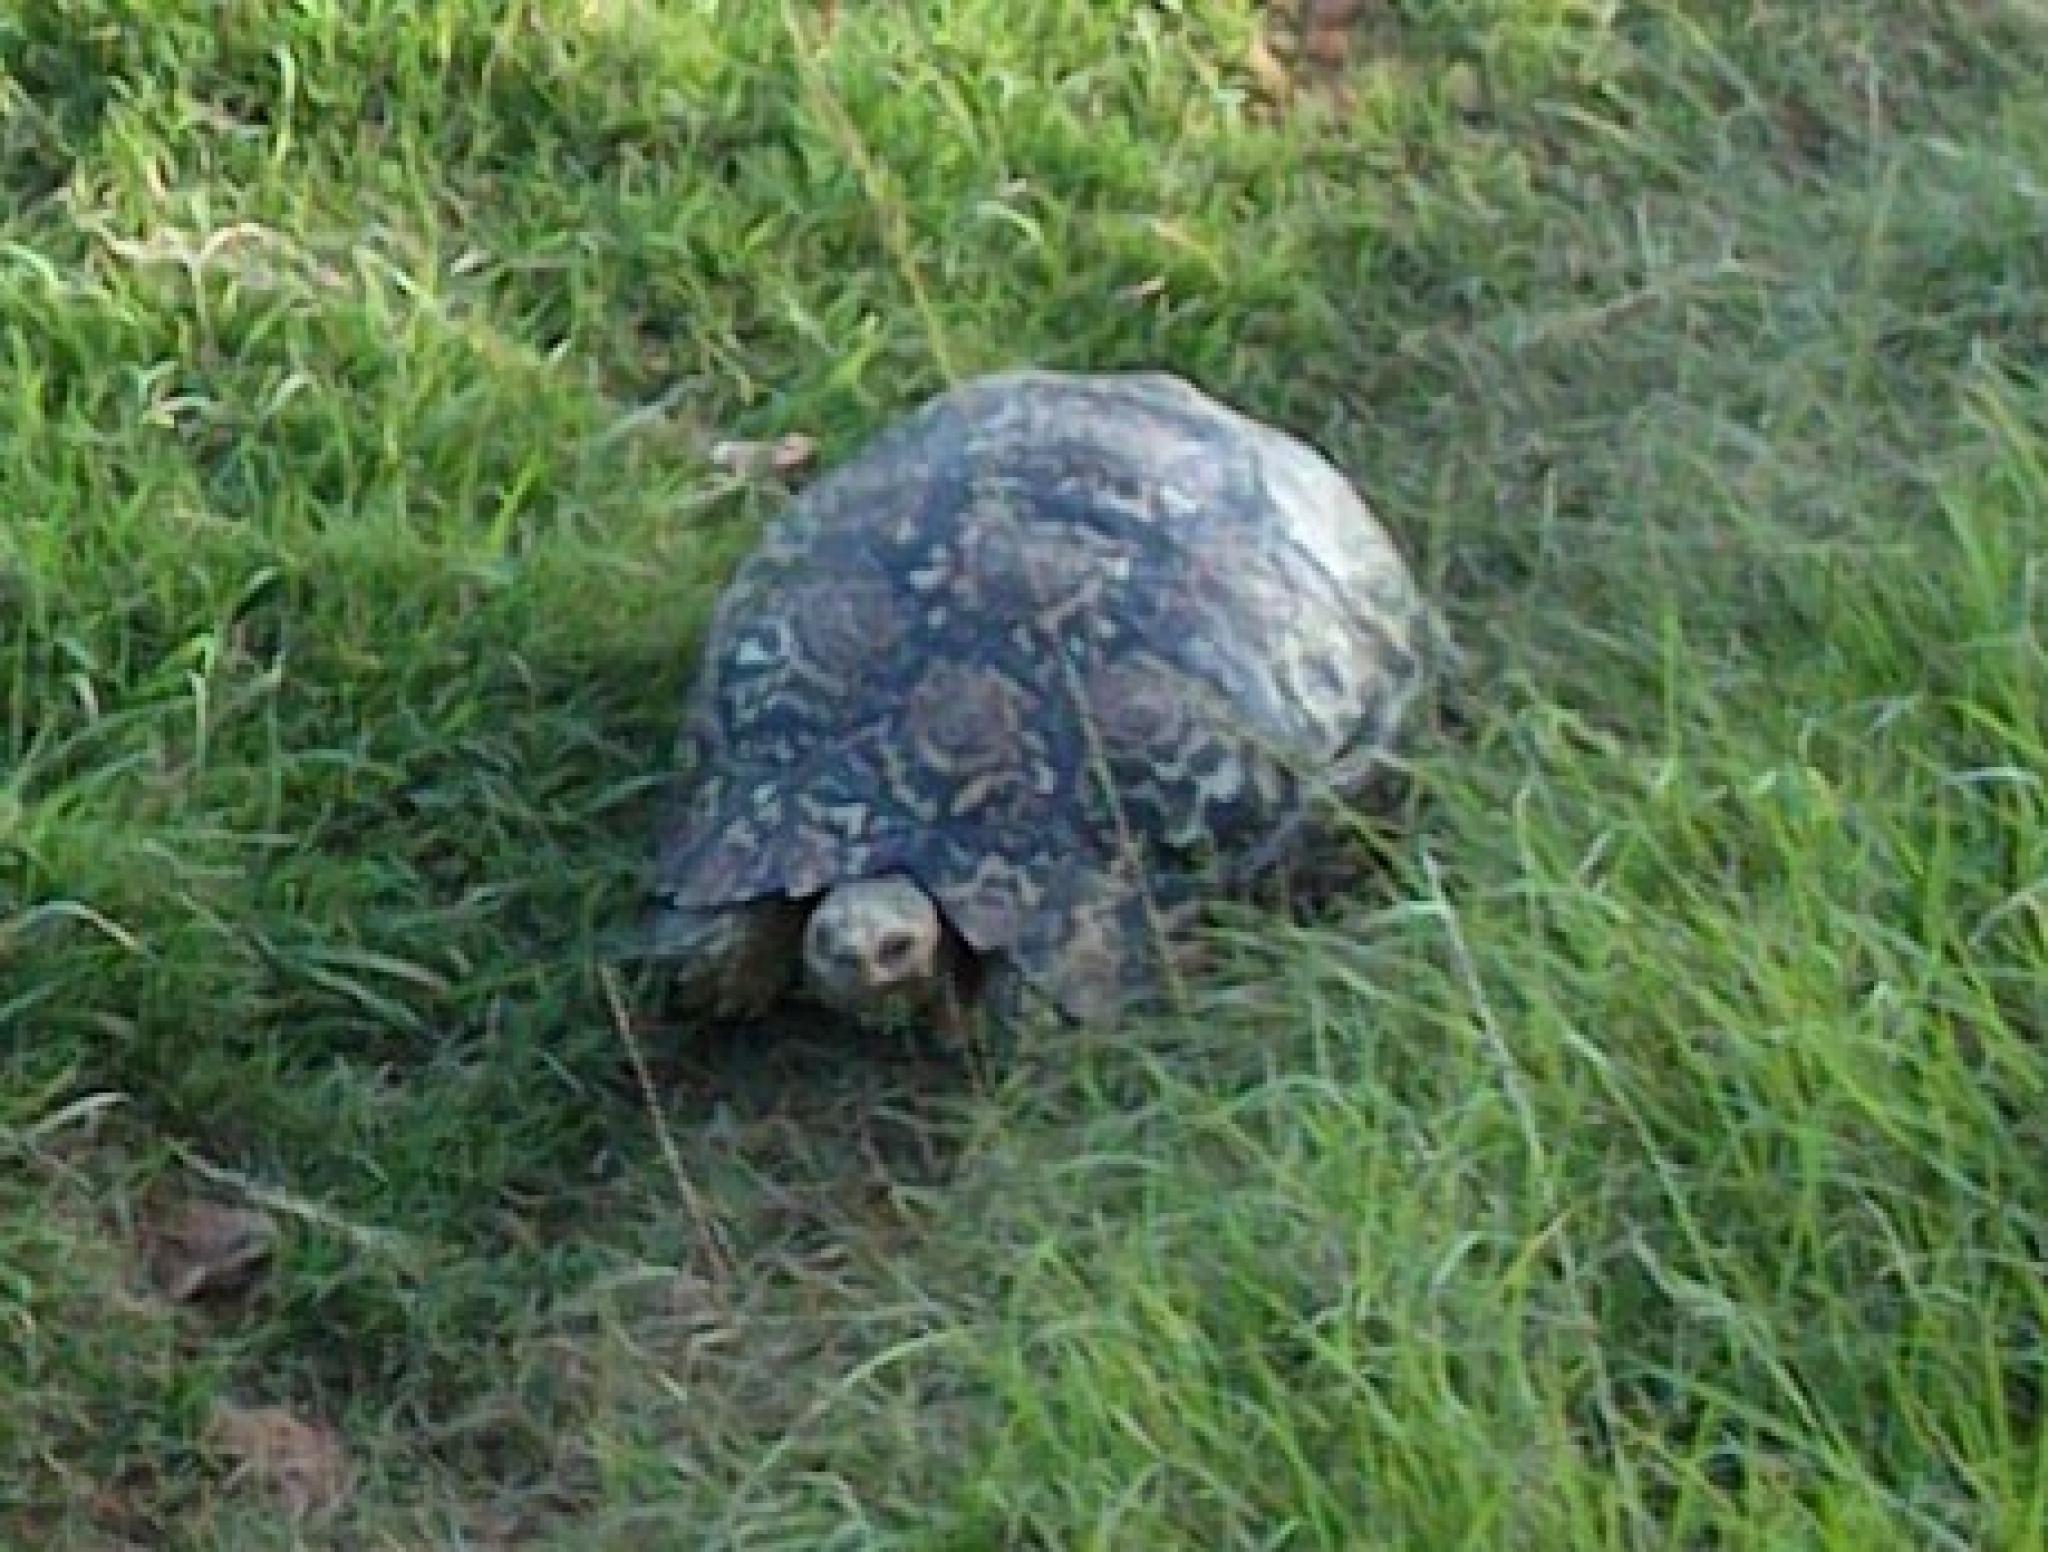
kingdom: Animalia
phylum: Chordata
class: Testudines
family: Testudinidae
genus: Stigmochelys
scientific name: Stigmochelys pardalis
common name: Leopard tortoise
